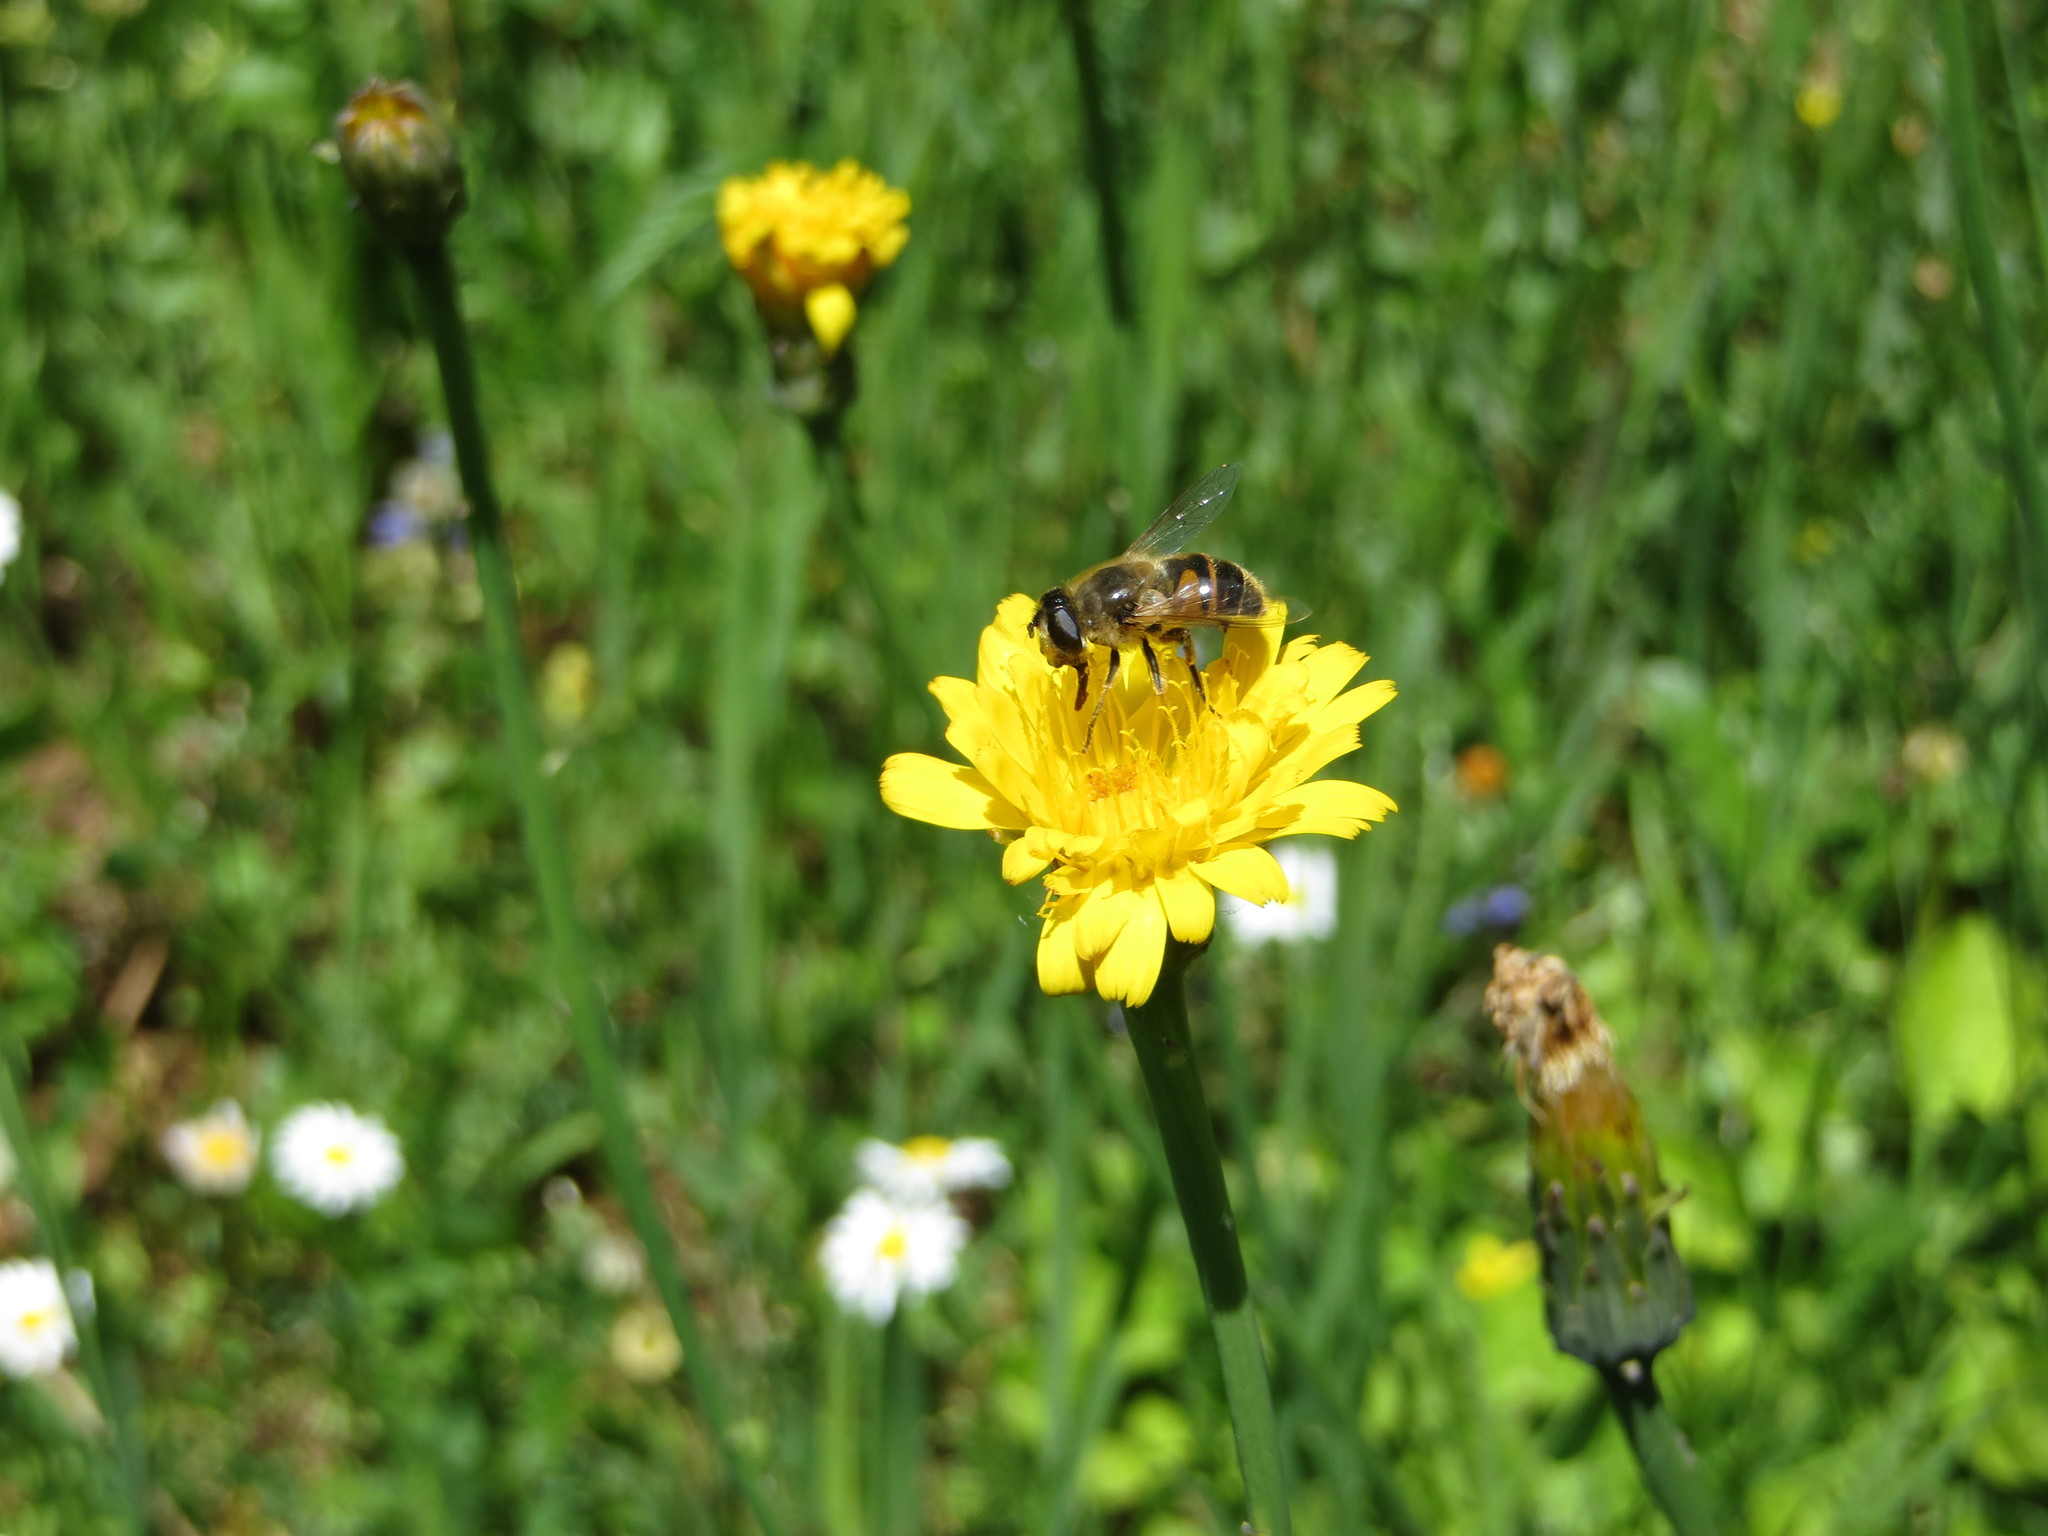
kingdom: Animalia
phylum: Arthropoda
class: Insecta
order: Diptera
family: Syrphidae
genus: Eristalis
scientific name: Eristalis tenax
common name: Drone fly
